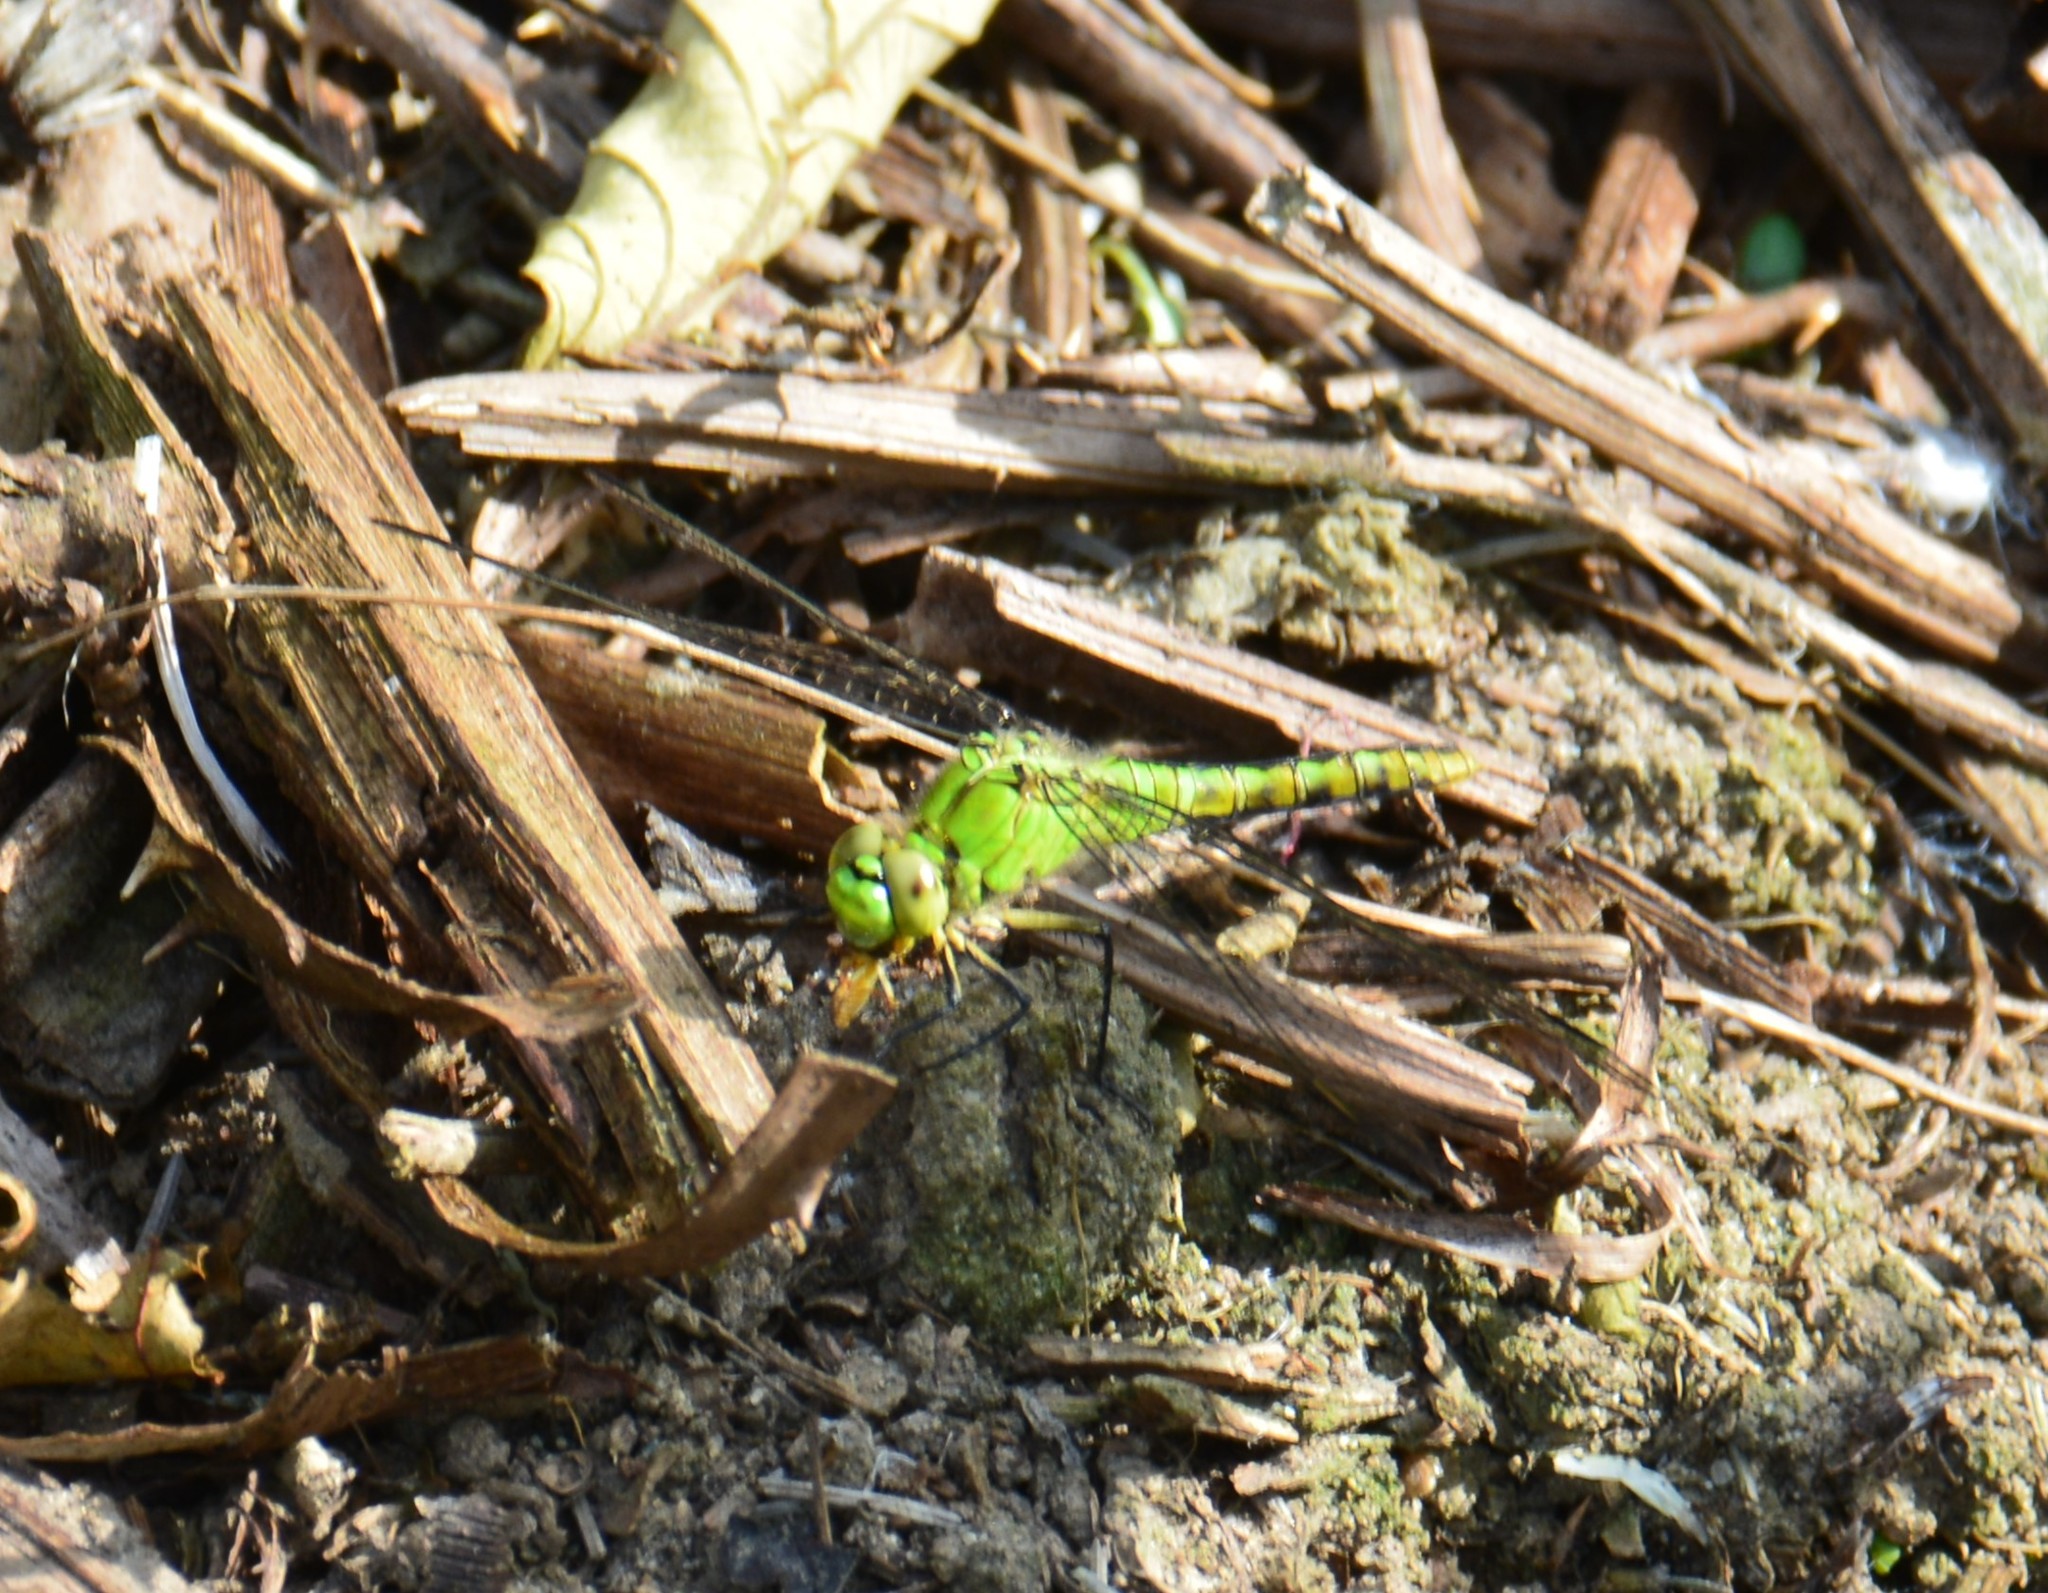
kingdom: Animalia
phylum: Arthropoda
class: Insecta
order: Odonata
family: Libellulidae
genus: Erythemis
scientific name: Erythemis collocata
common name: Western pondhawk
